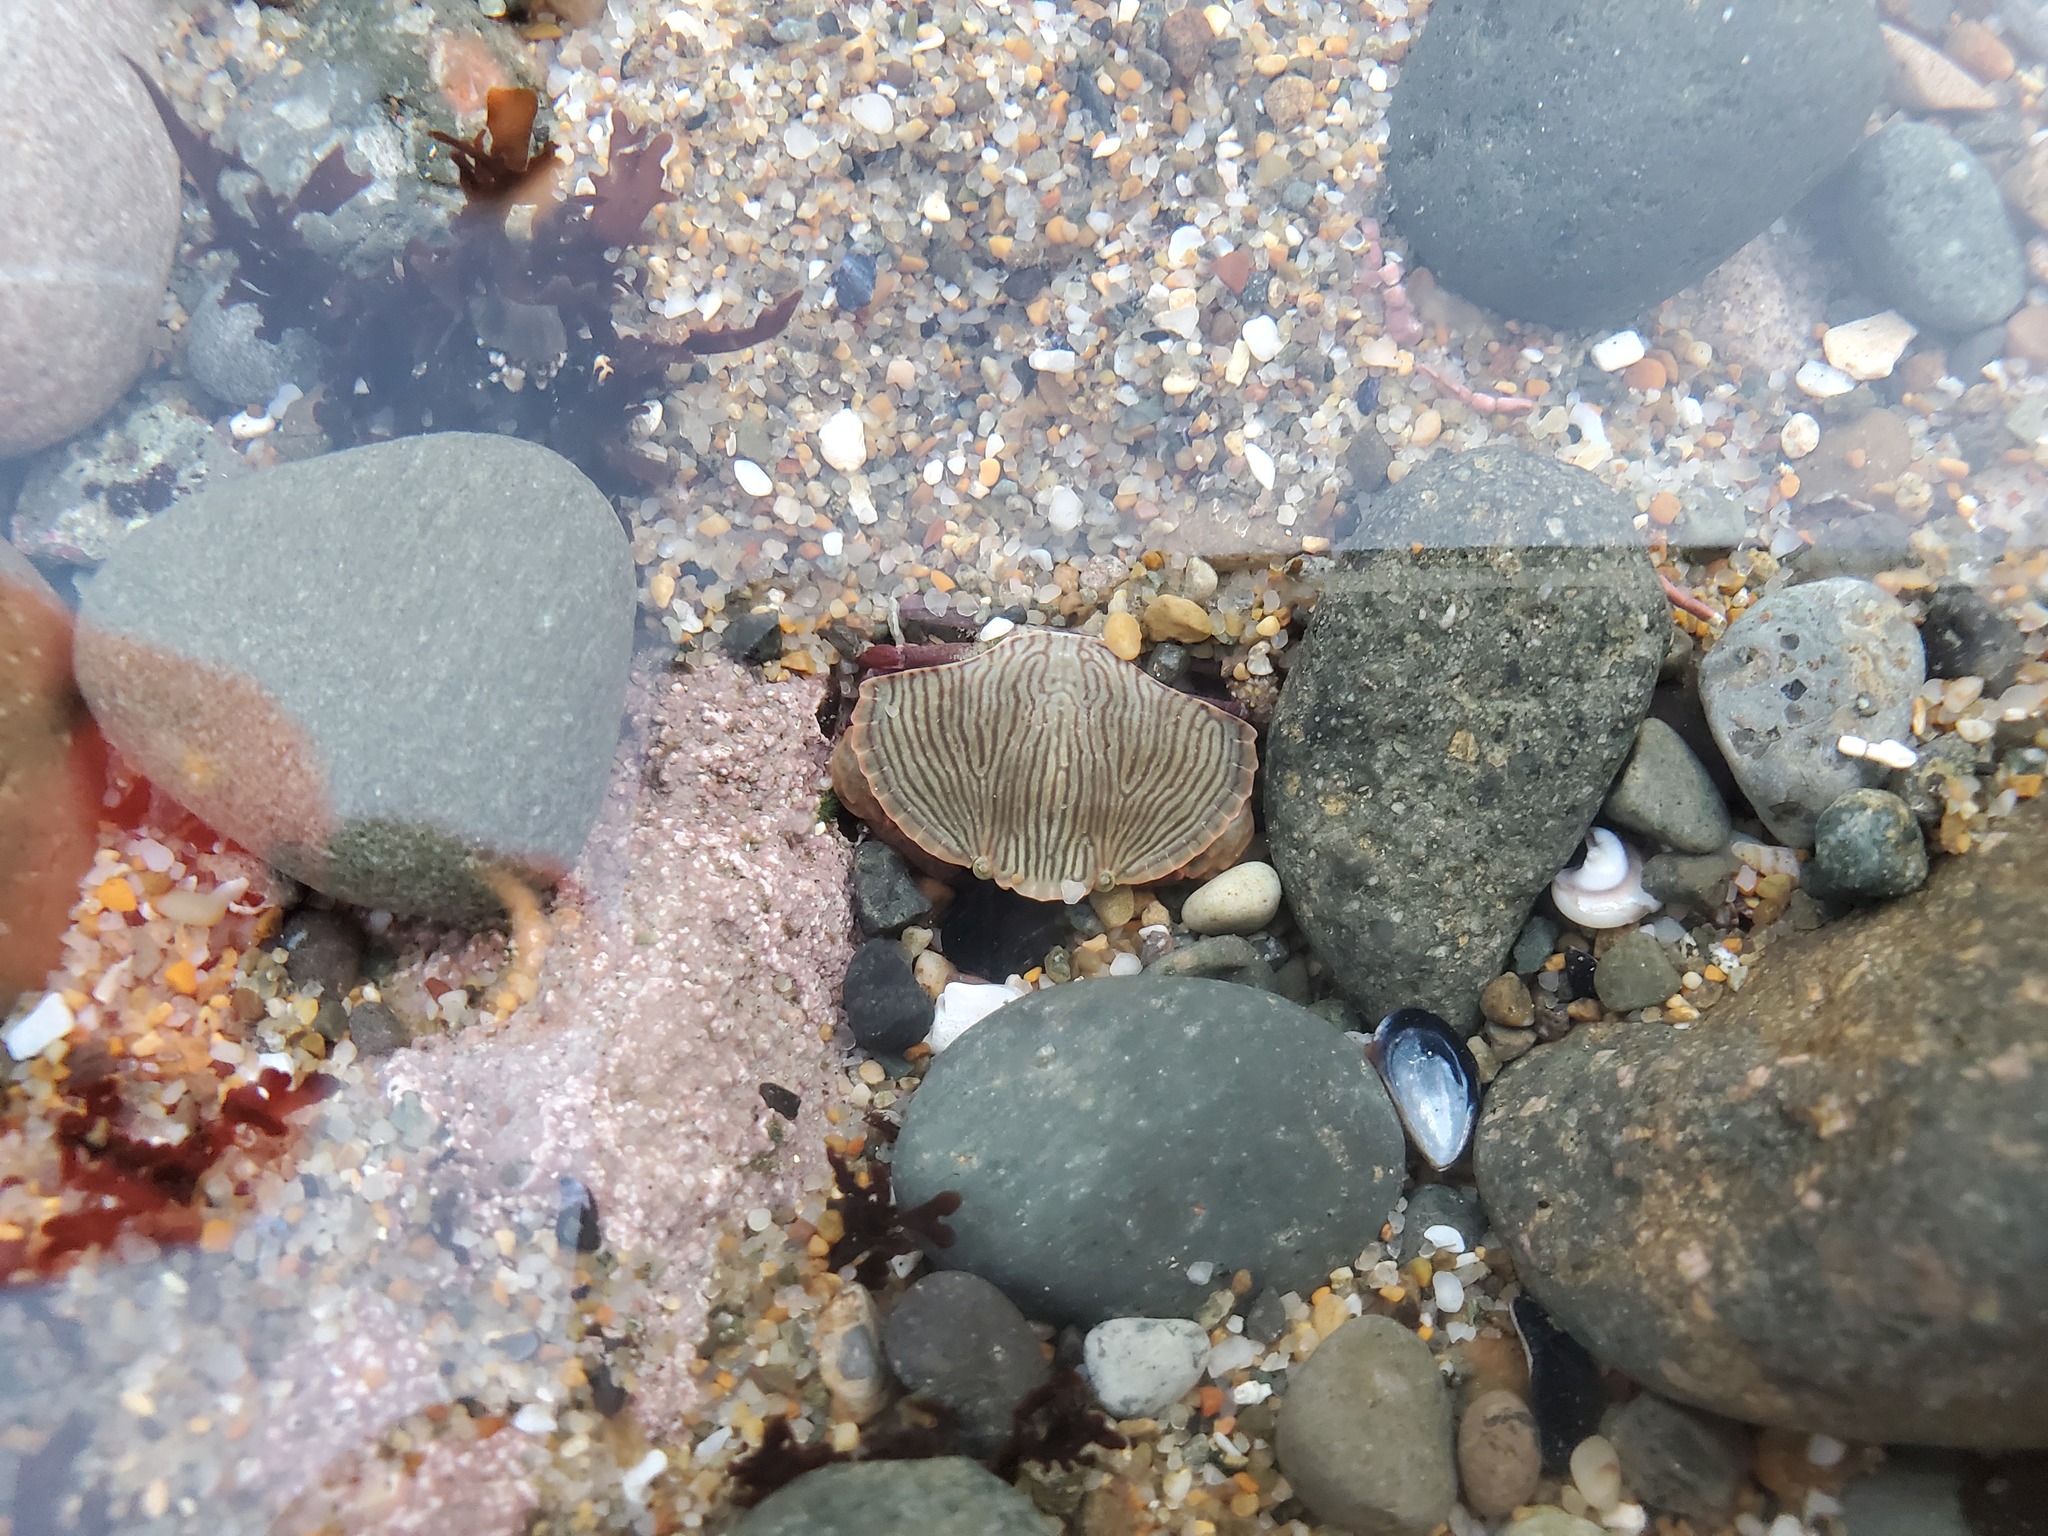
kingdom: Animalia
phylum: Arthropoda
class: Malacostraca
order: Decapoda
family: Cancridae
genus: Cancer
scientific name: Cancer productus
